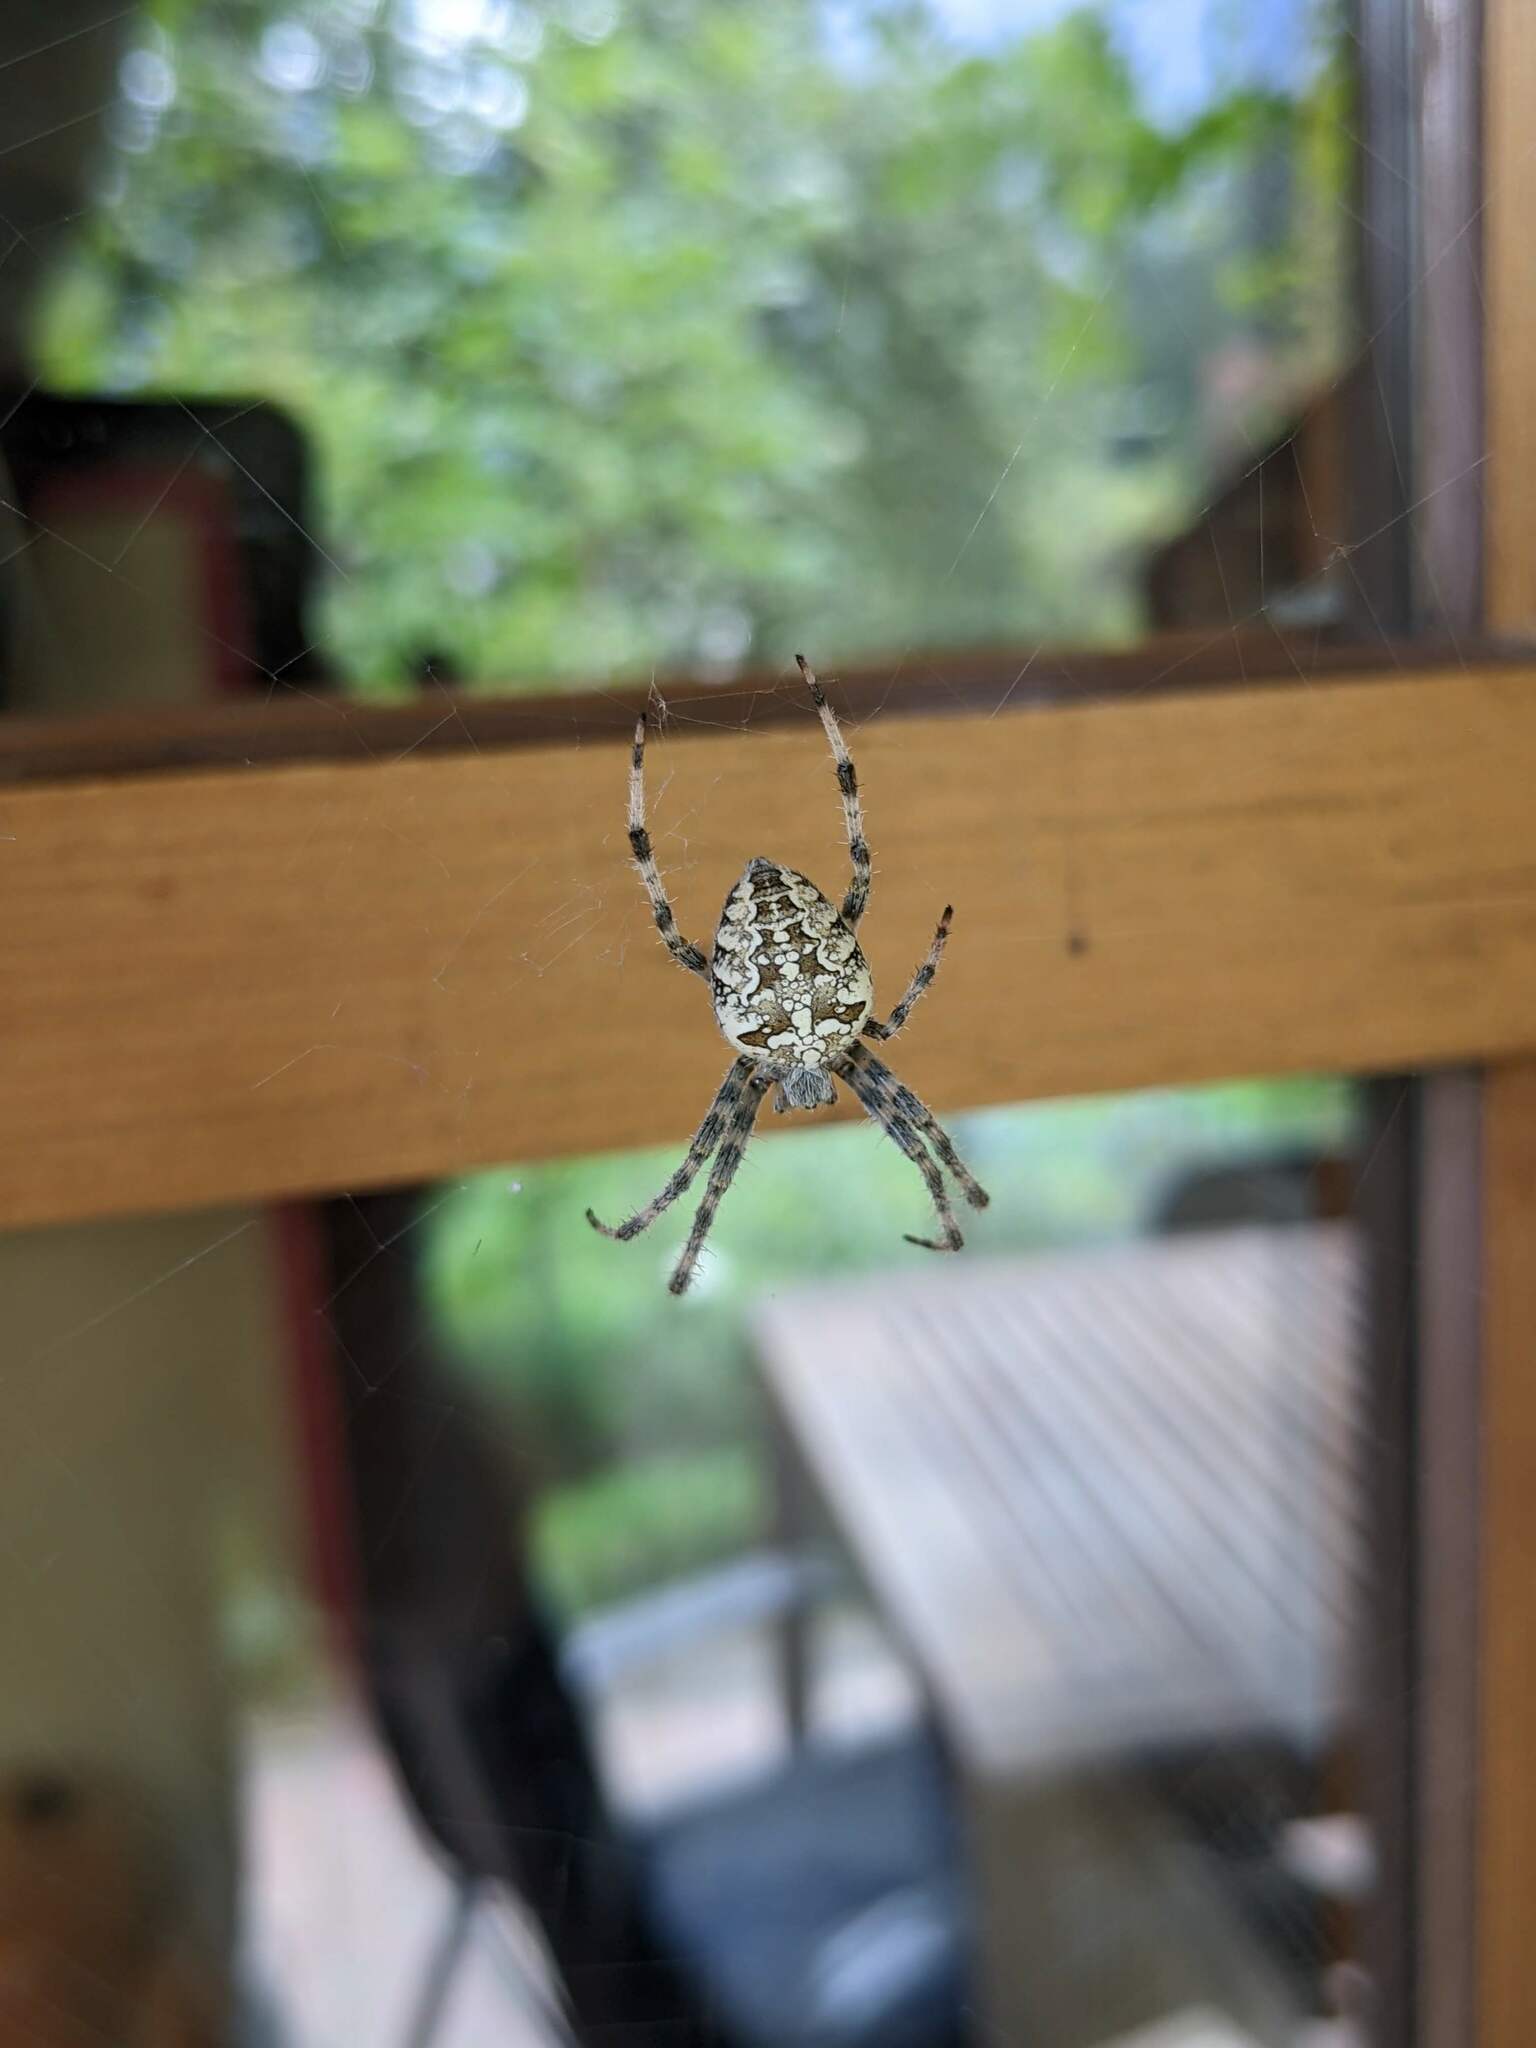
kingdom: Animalia
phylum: Arthropoda
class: Arachnida
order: Araneae
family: Araneidae
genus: Araneus
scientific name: Araneus diadematus
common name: Cross orbweaver
